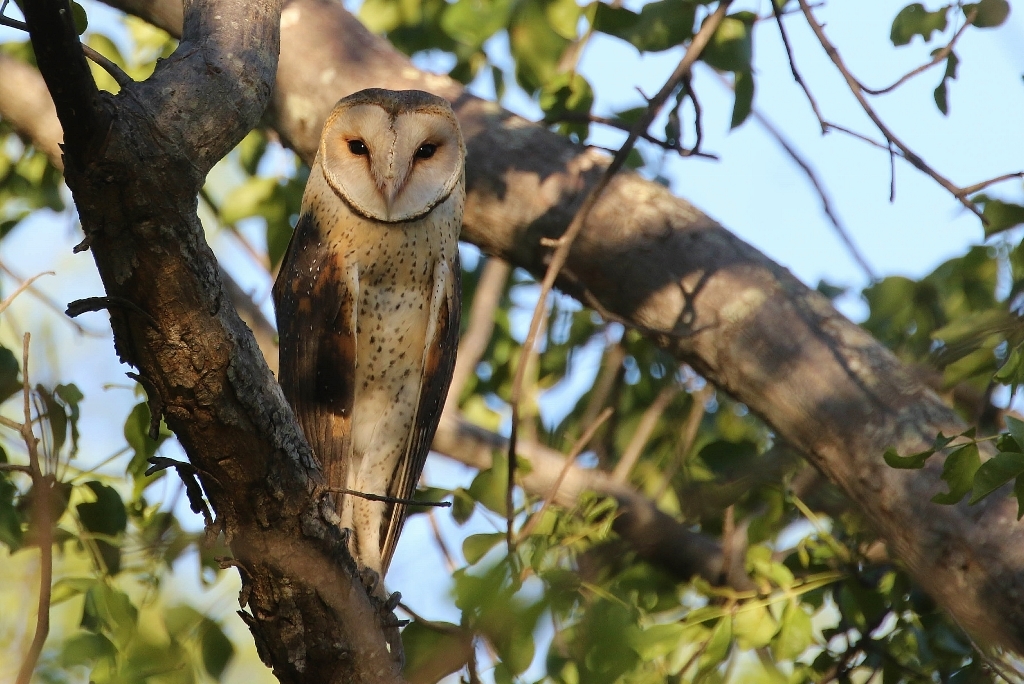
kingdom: Animalia
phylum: Chordata
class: Aves
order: Strigiformes
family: Tytonidae
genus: Tyto
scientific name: Tyto alba
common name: Barn owl
